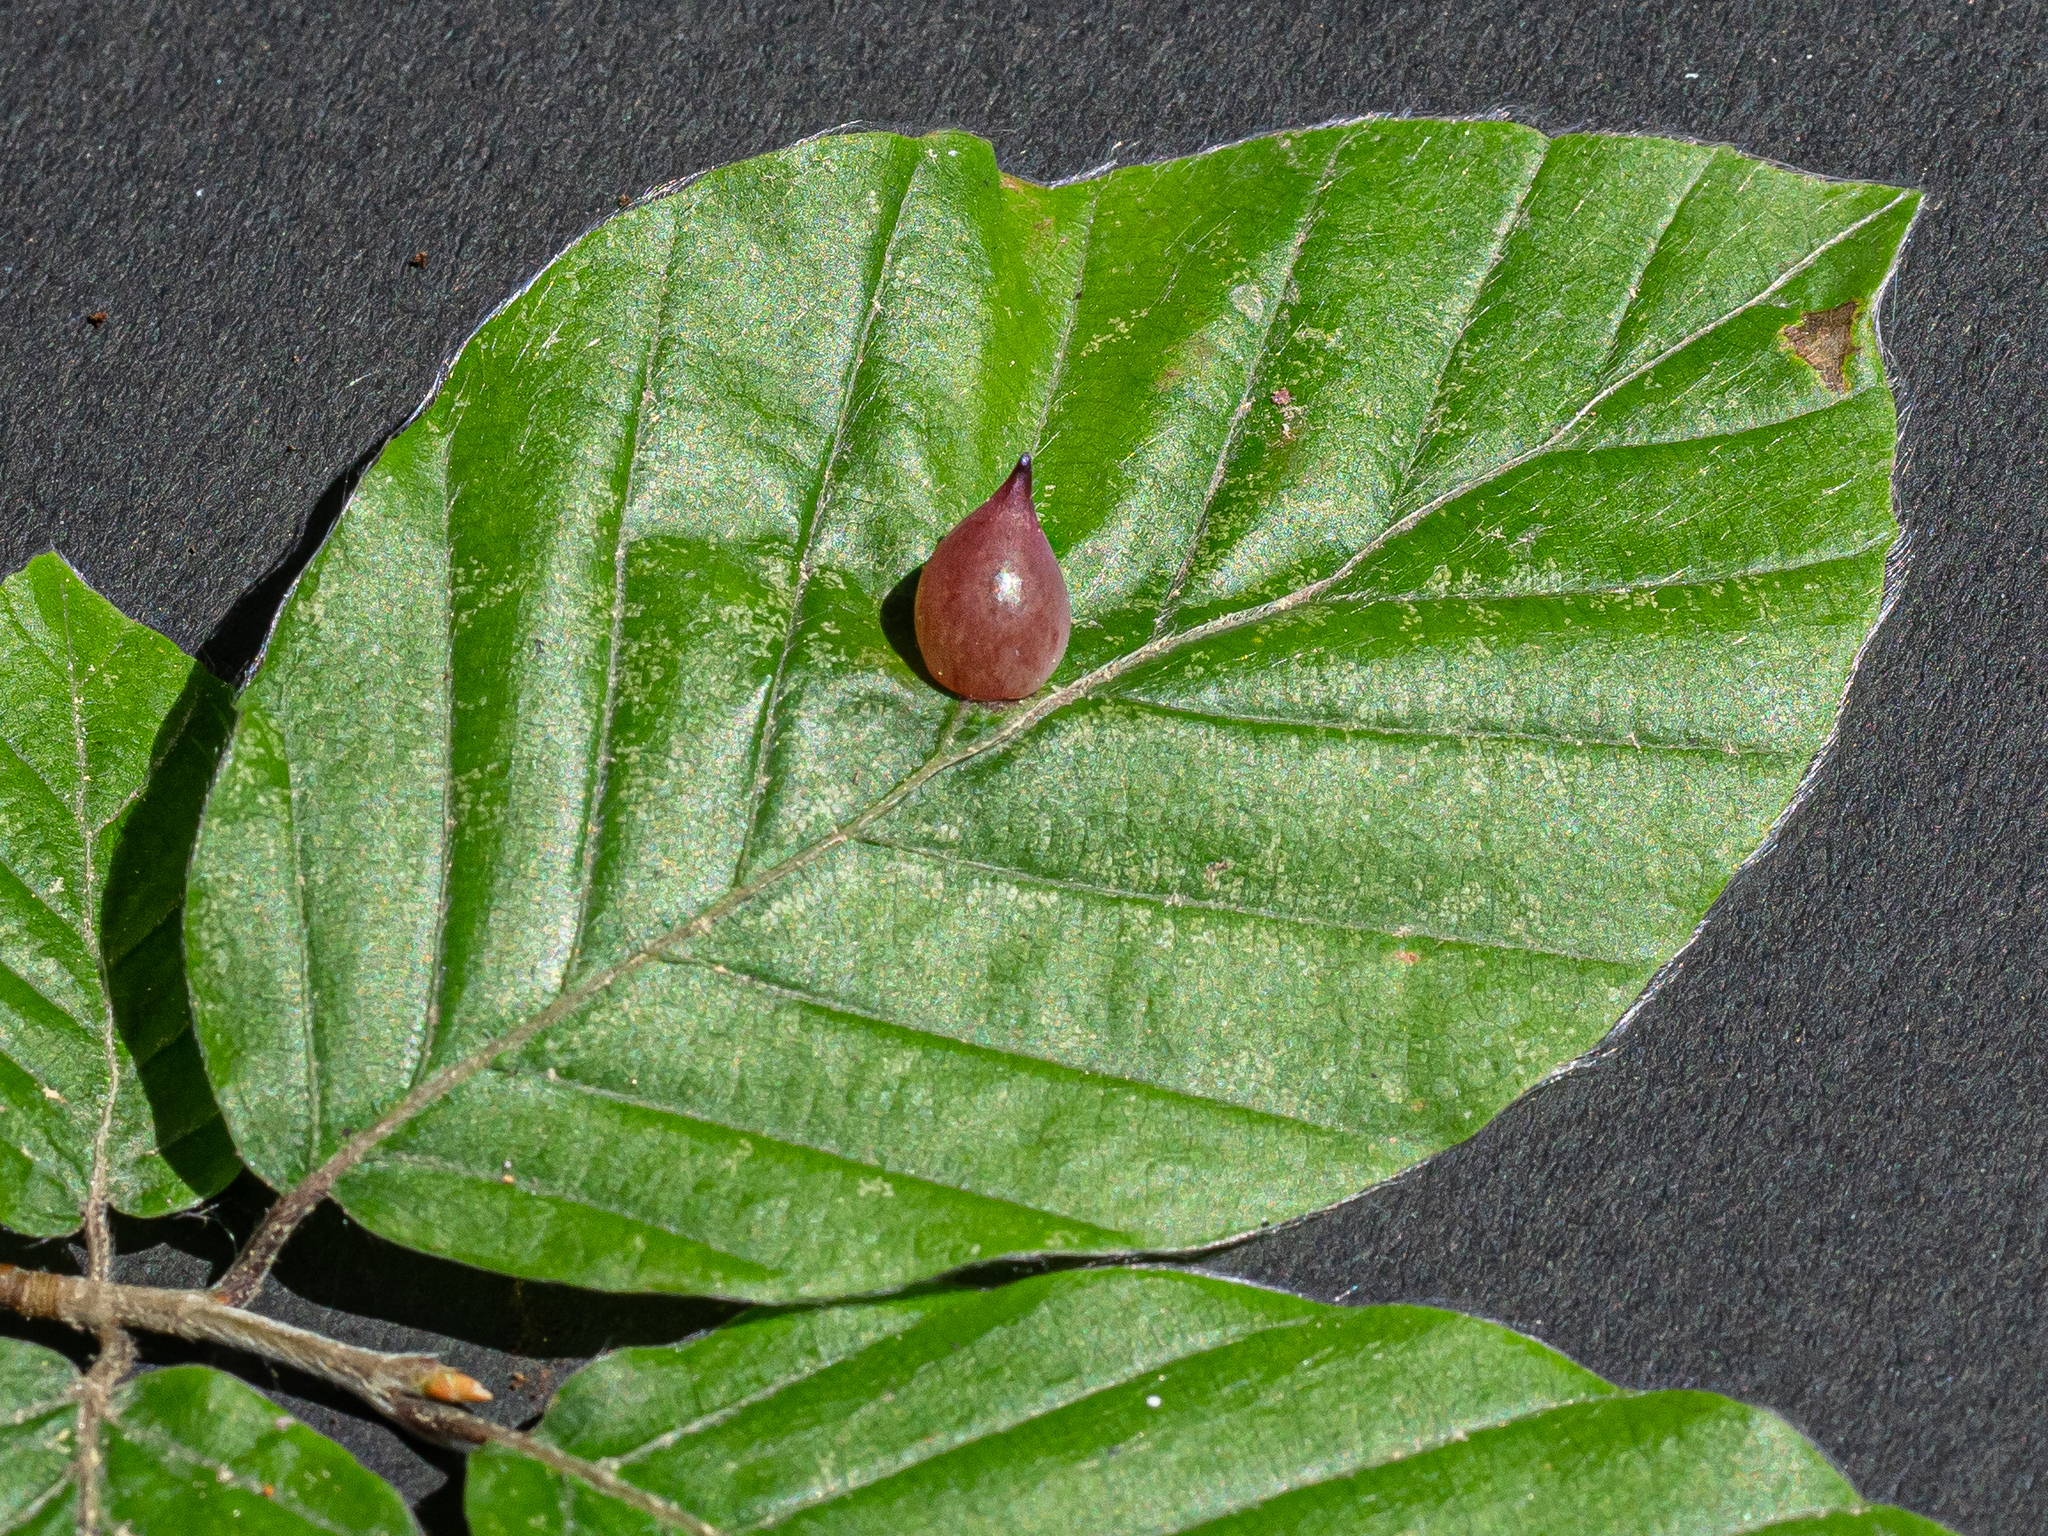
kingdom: Animalia
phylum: Arthropoda
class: Insecta
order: Diptera
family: Cecidomyiidae
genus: Mikiola
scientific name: Mikiola fagi
